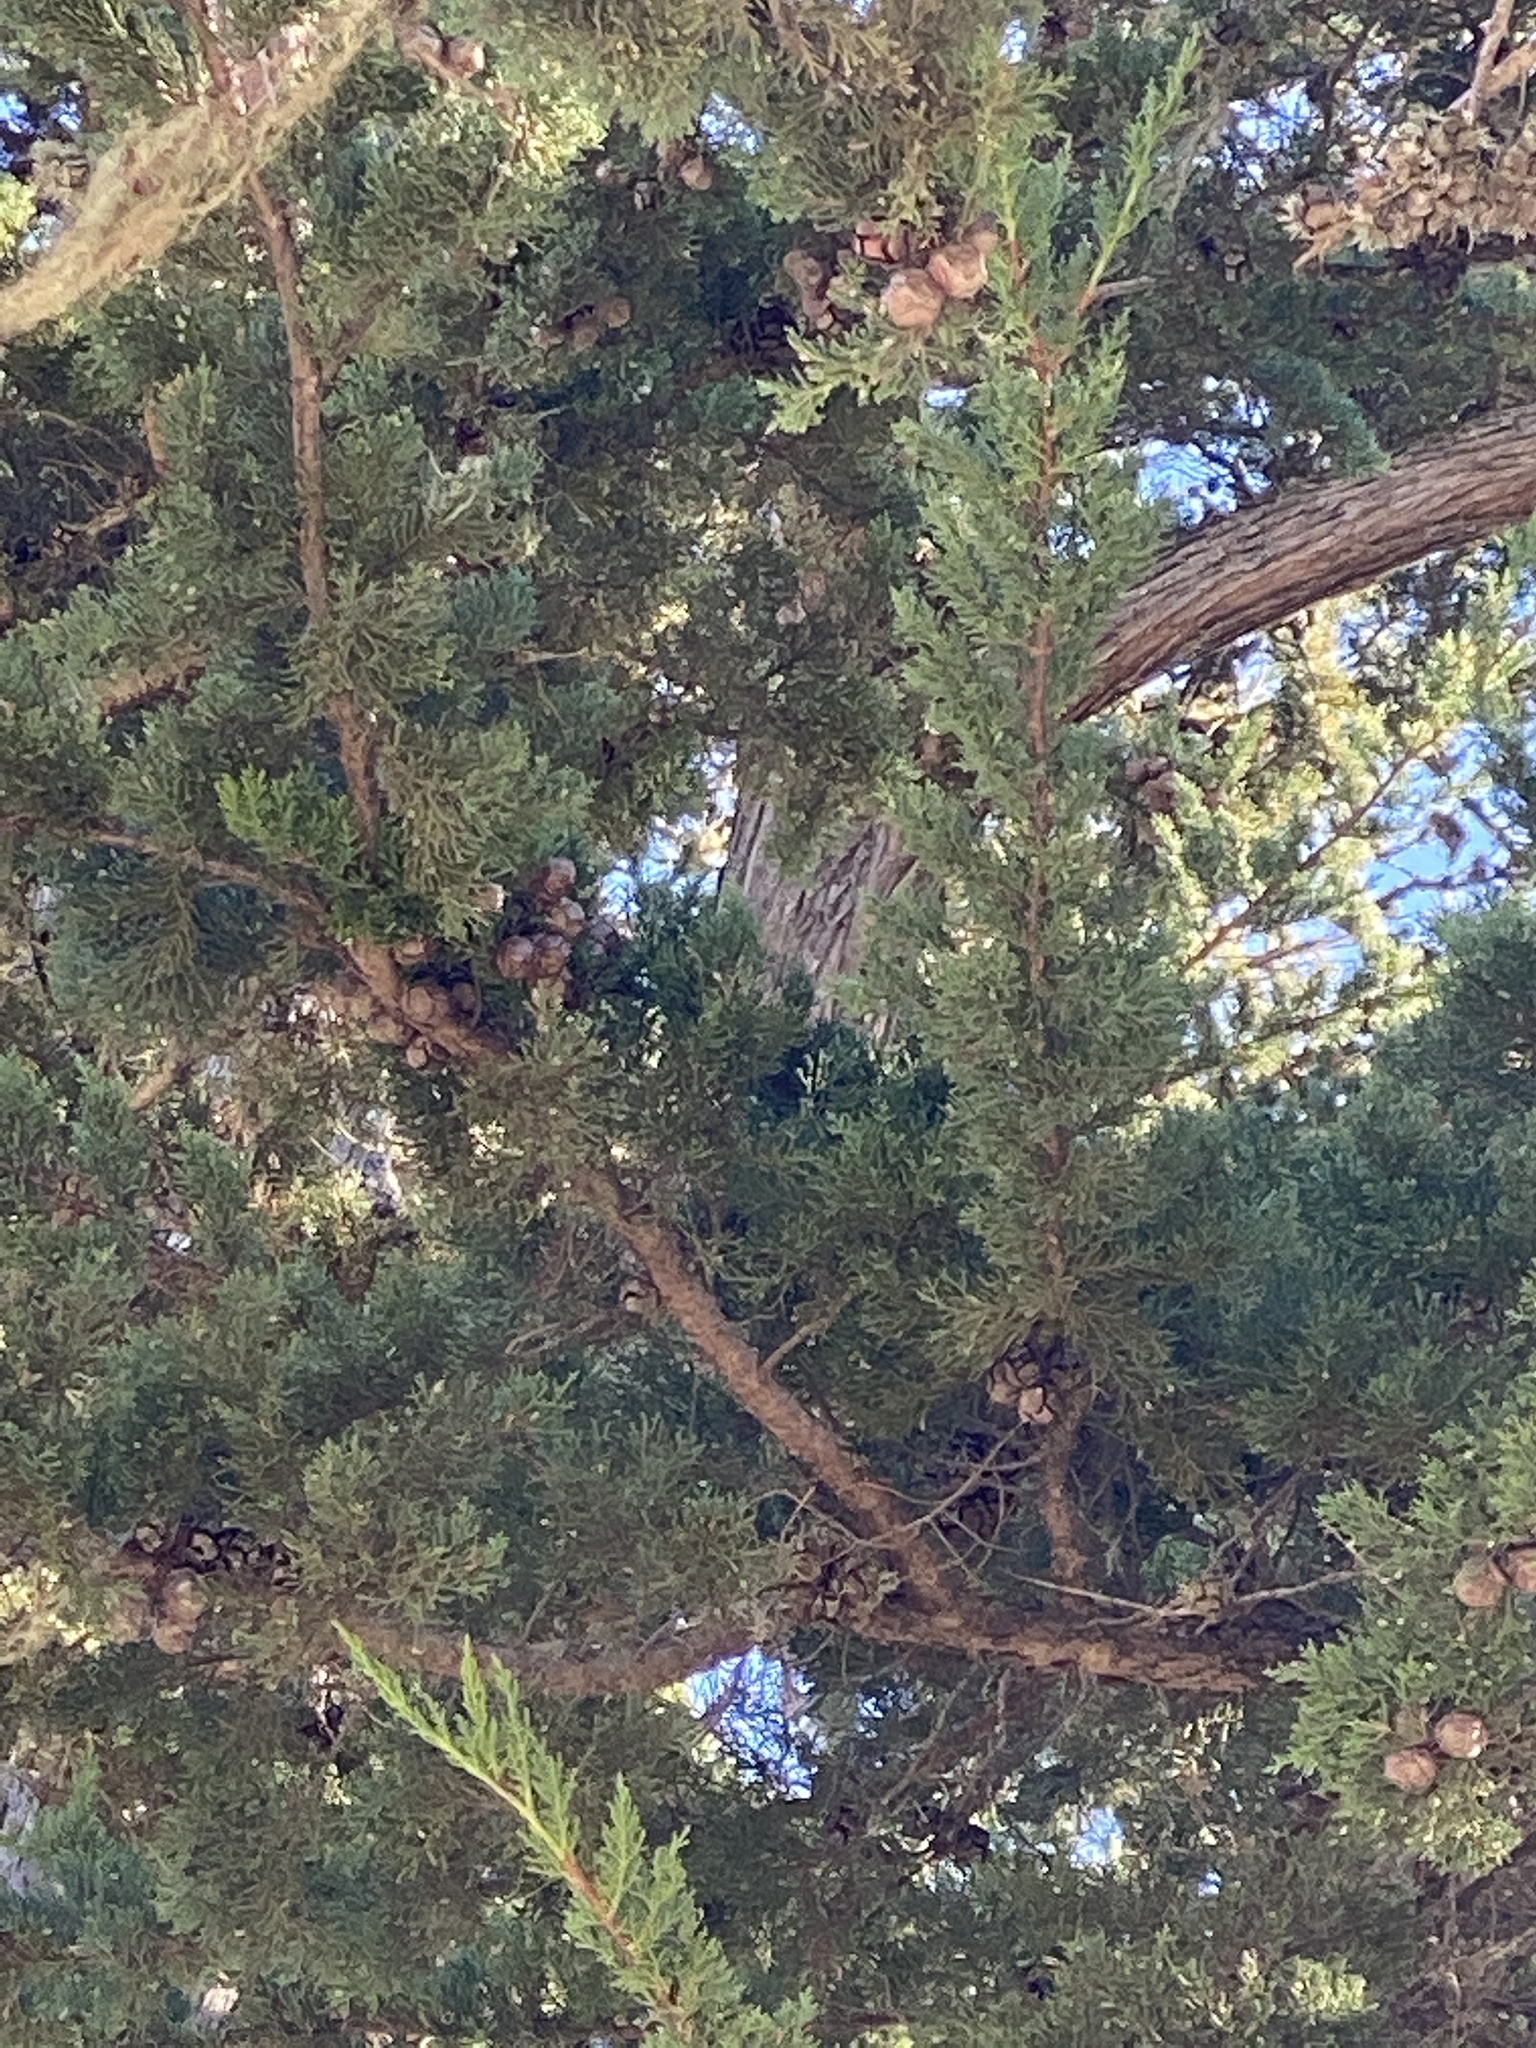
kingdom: Plantae
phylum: Tracheophyta
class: Pinopsida
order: Pinales
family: Cupressaceae
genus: Cupressus
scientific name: Cupressus macrocarpa
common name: Monterey cypress
